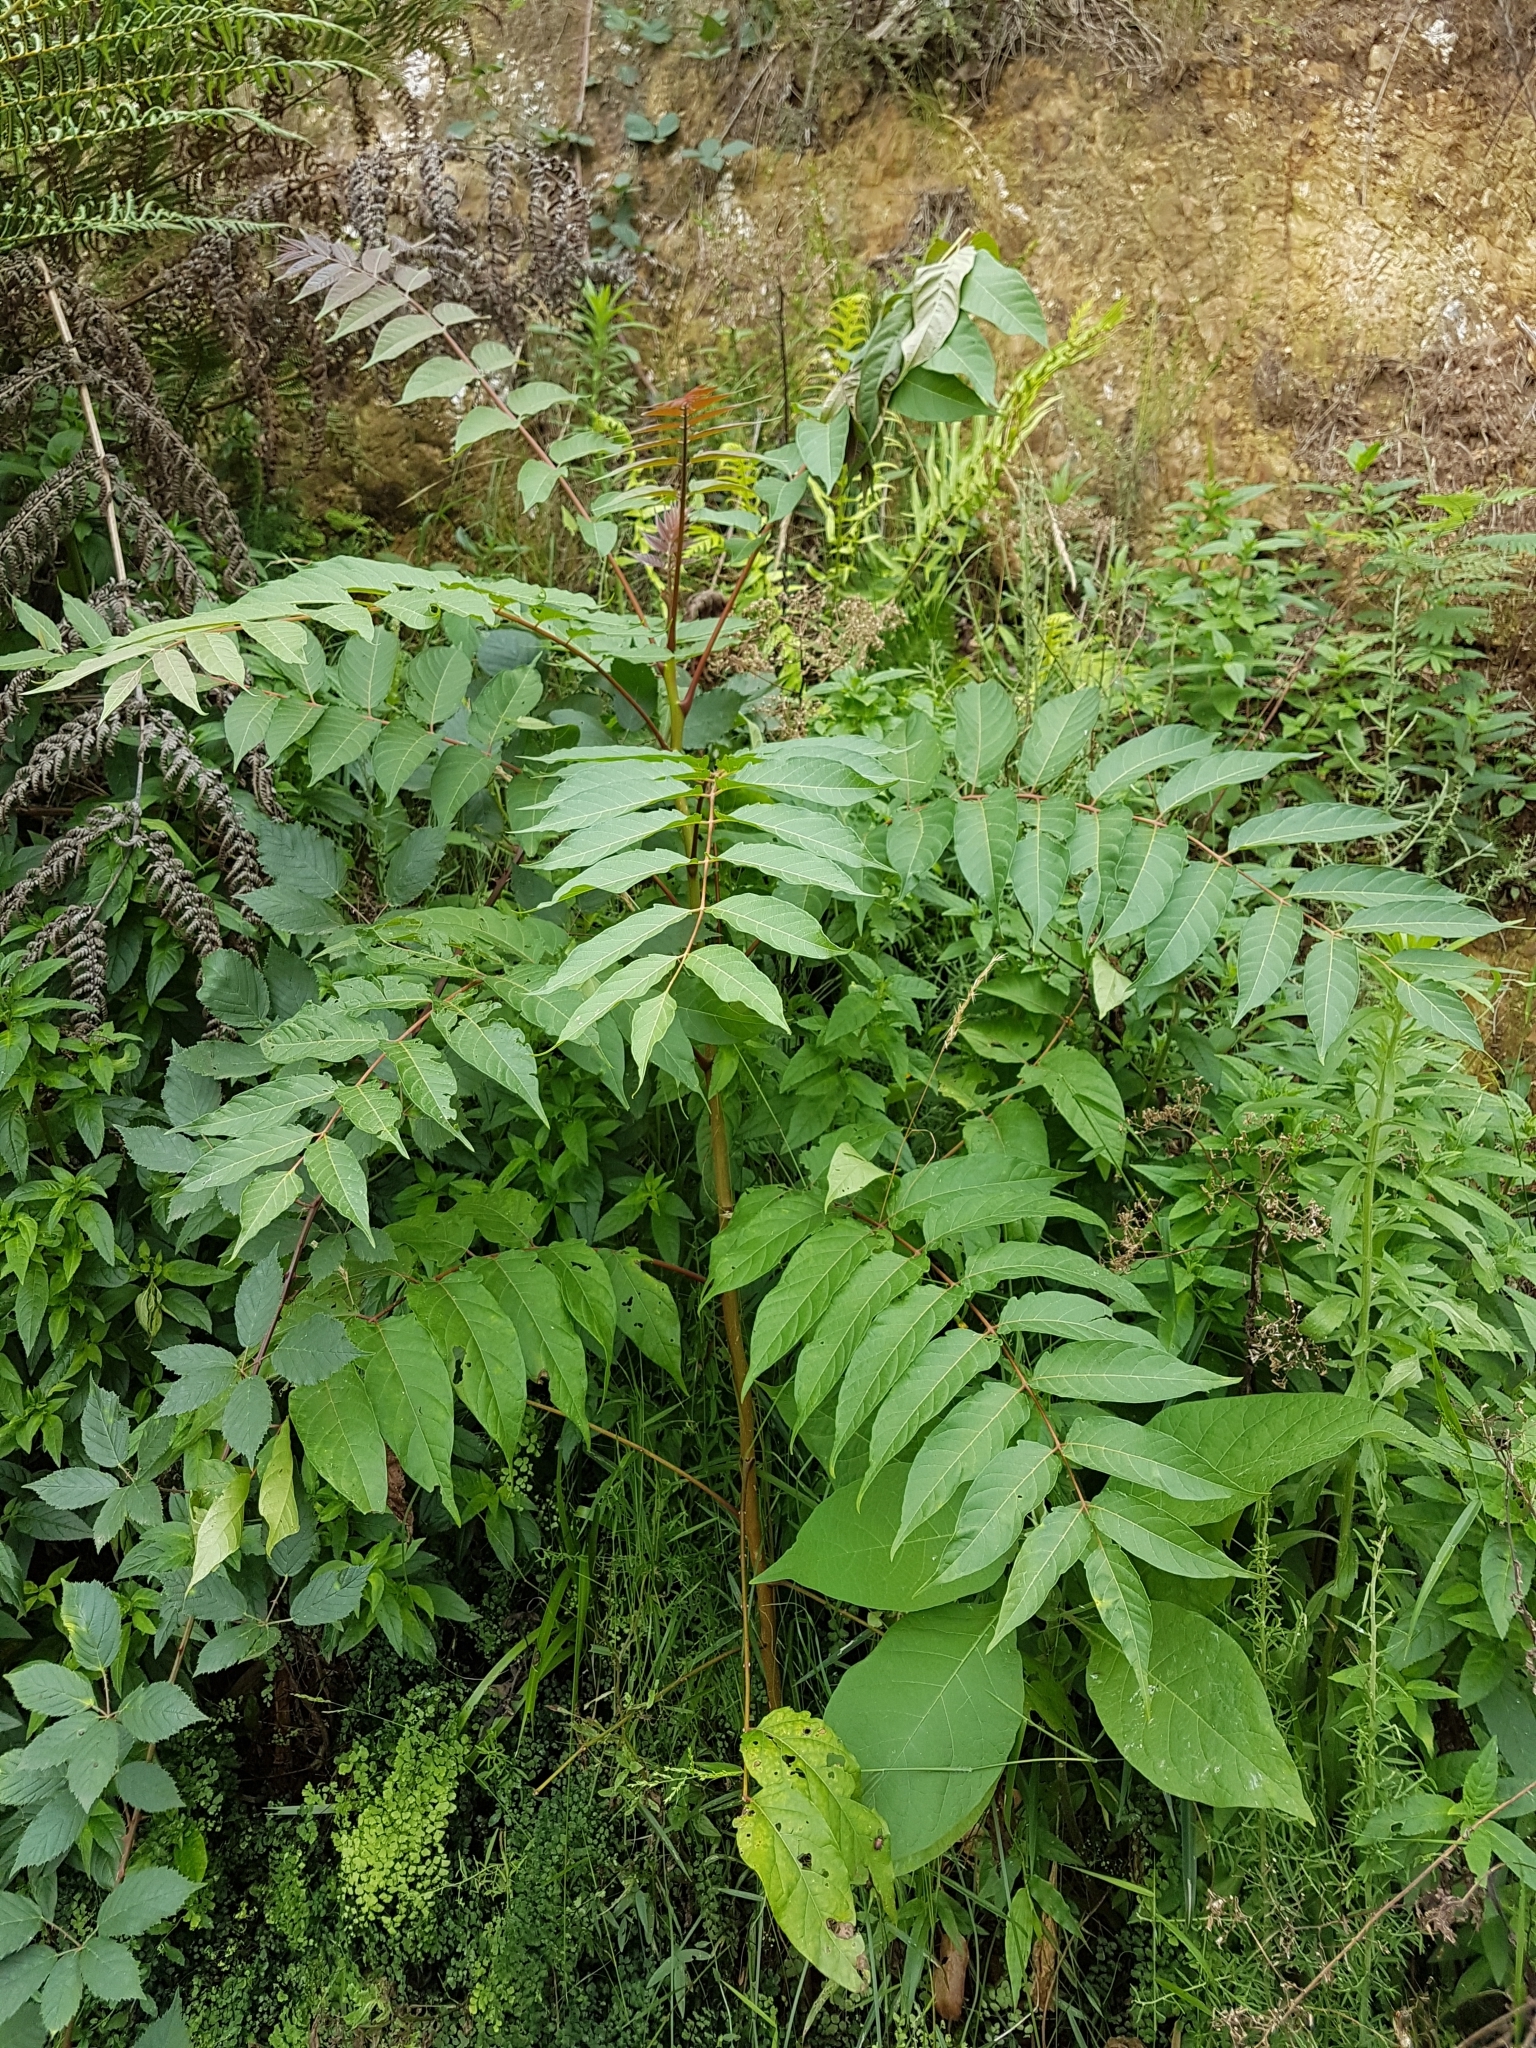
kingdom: Plantae
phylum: Tracheophyta
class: Magnoliopsida
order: Sapindales
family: Simaroubaceae
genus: Ailanthus
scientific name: Ailanthus altissima
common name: Tree-of-heaven
